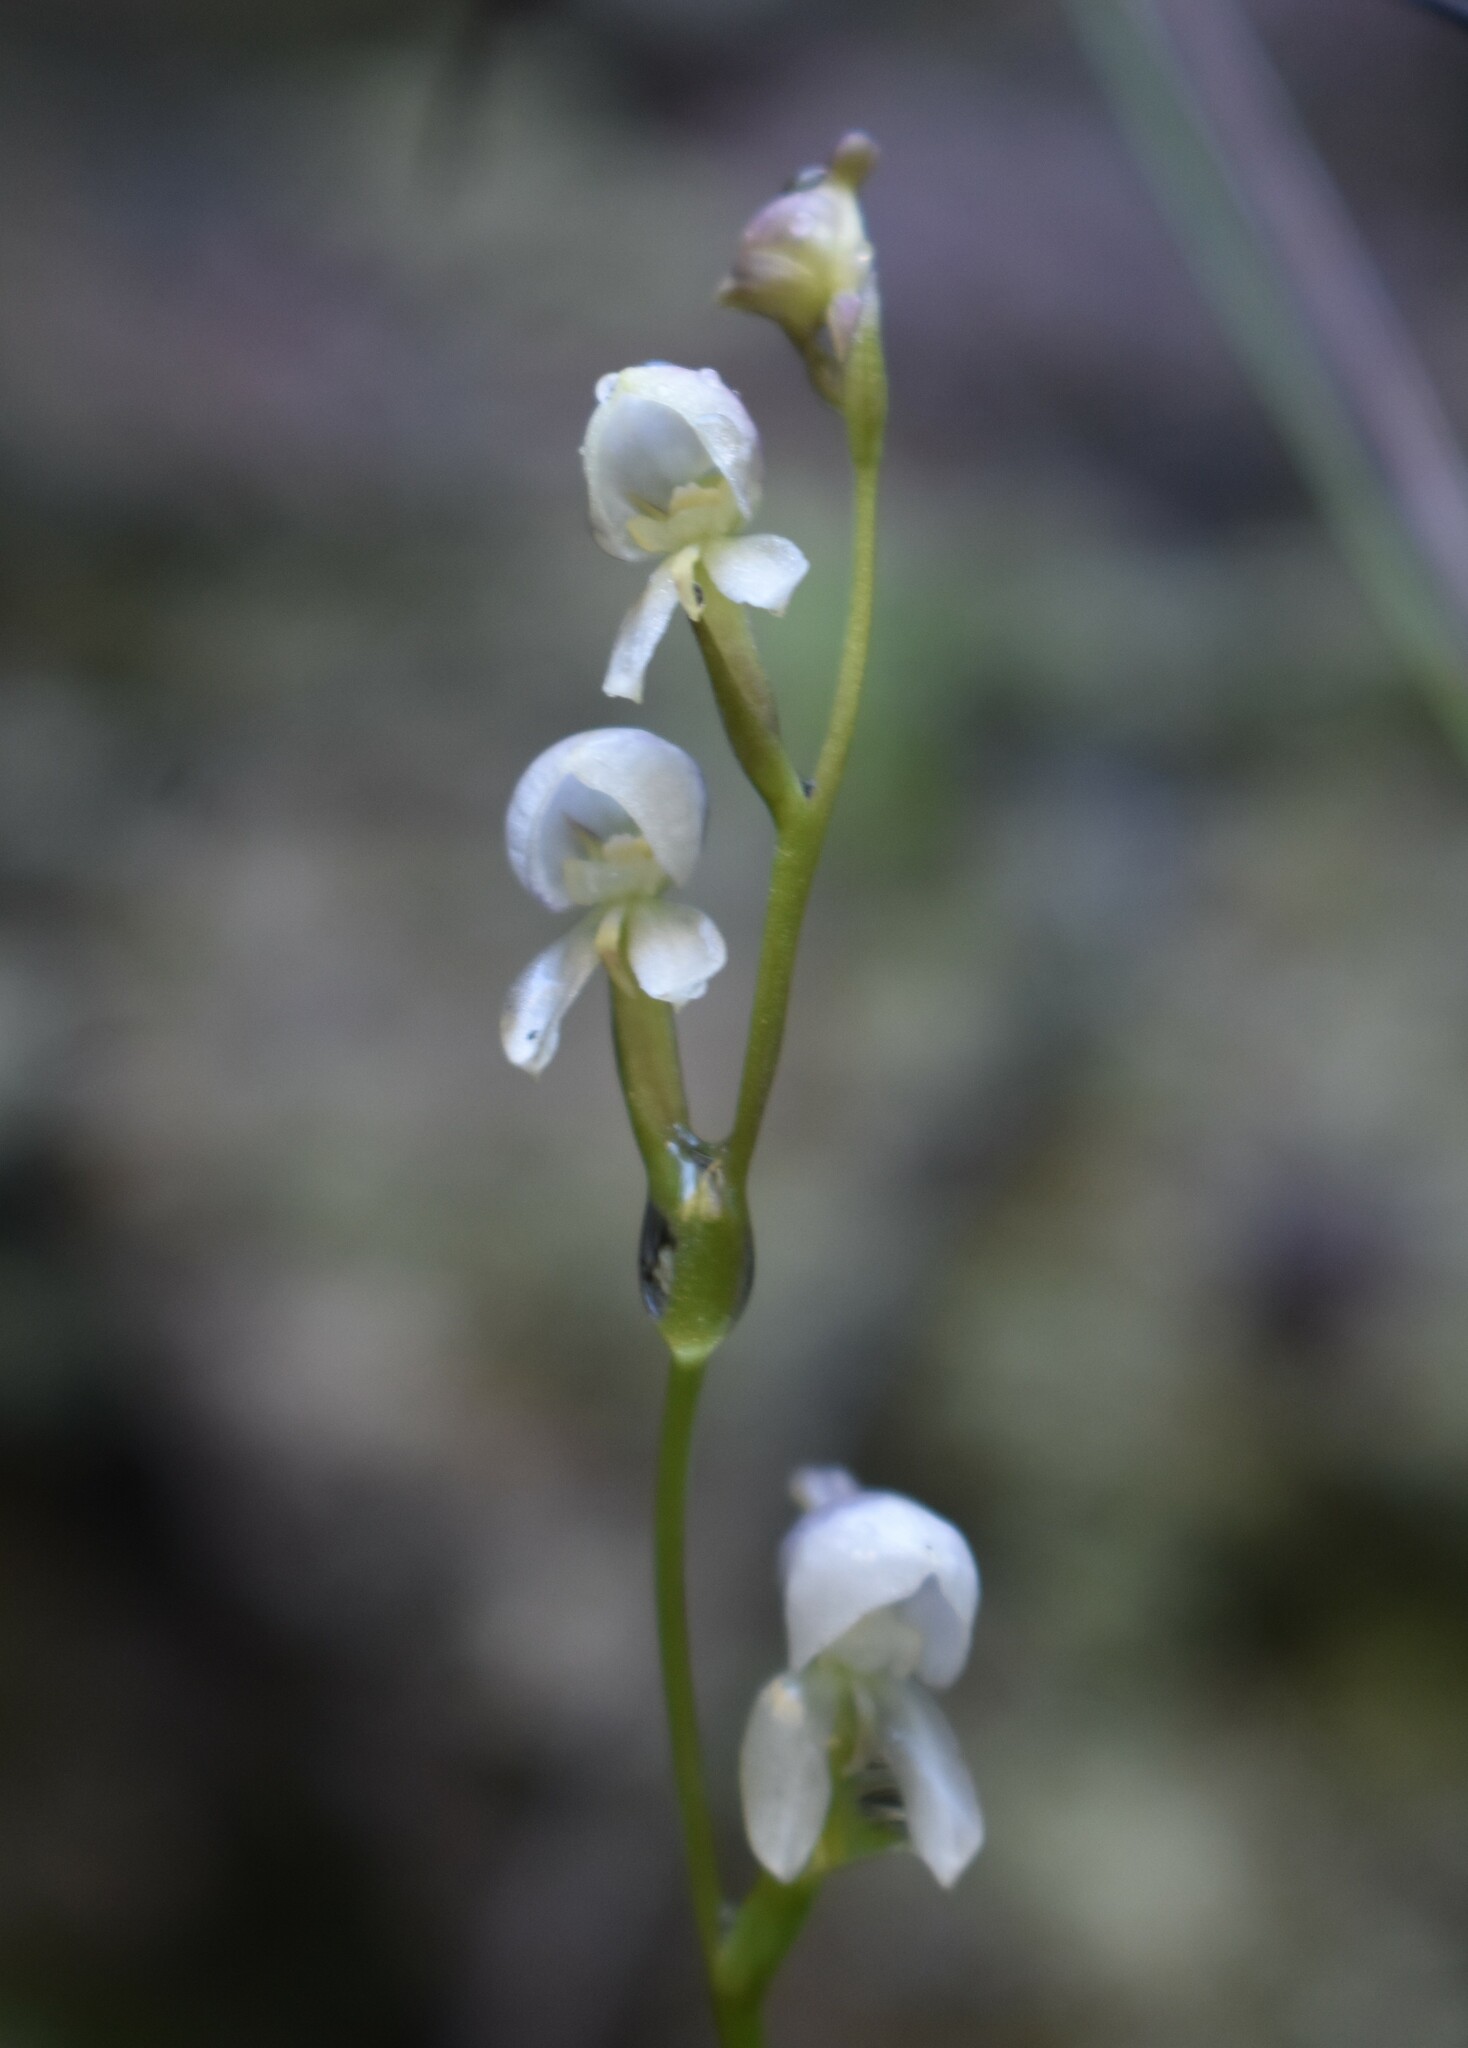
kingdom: Plantae
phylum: Tracheophyta
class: Liliopsida
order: Asparagales
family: Orchidaceae
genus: Disa
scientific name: Disa uncinata
